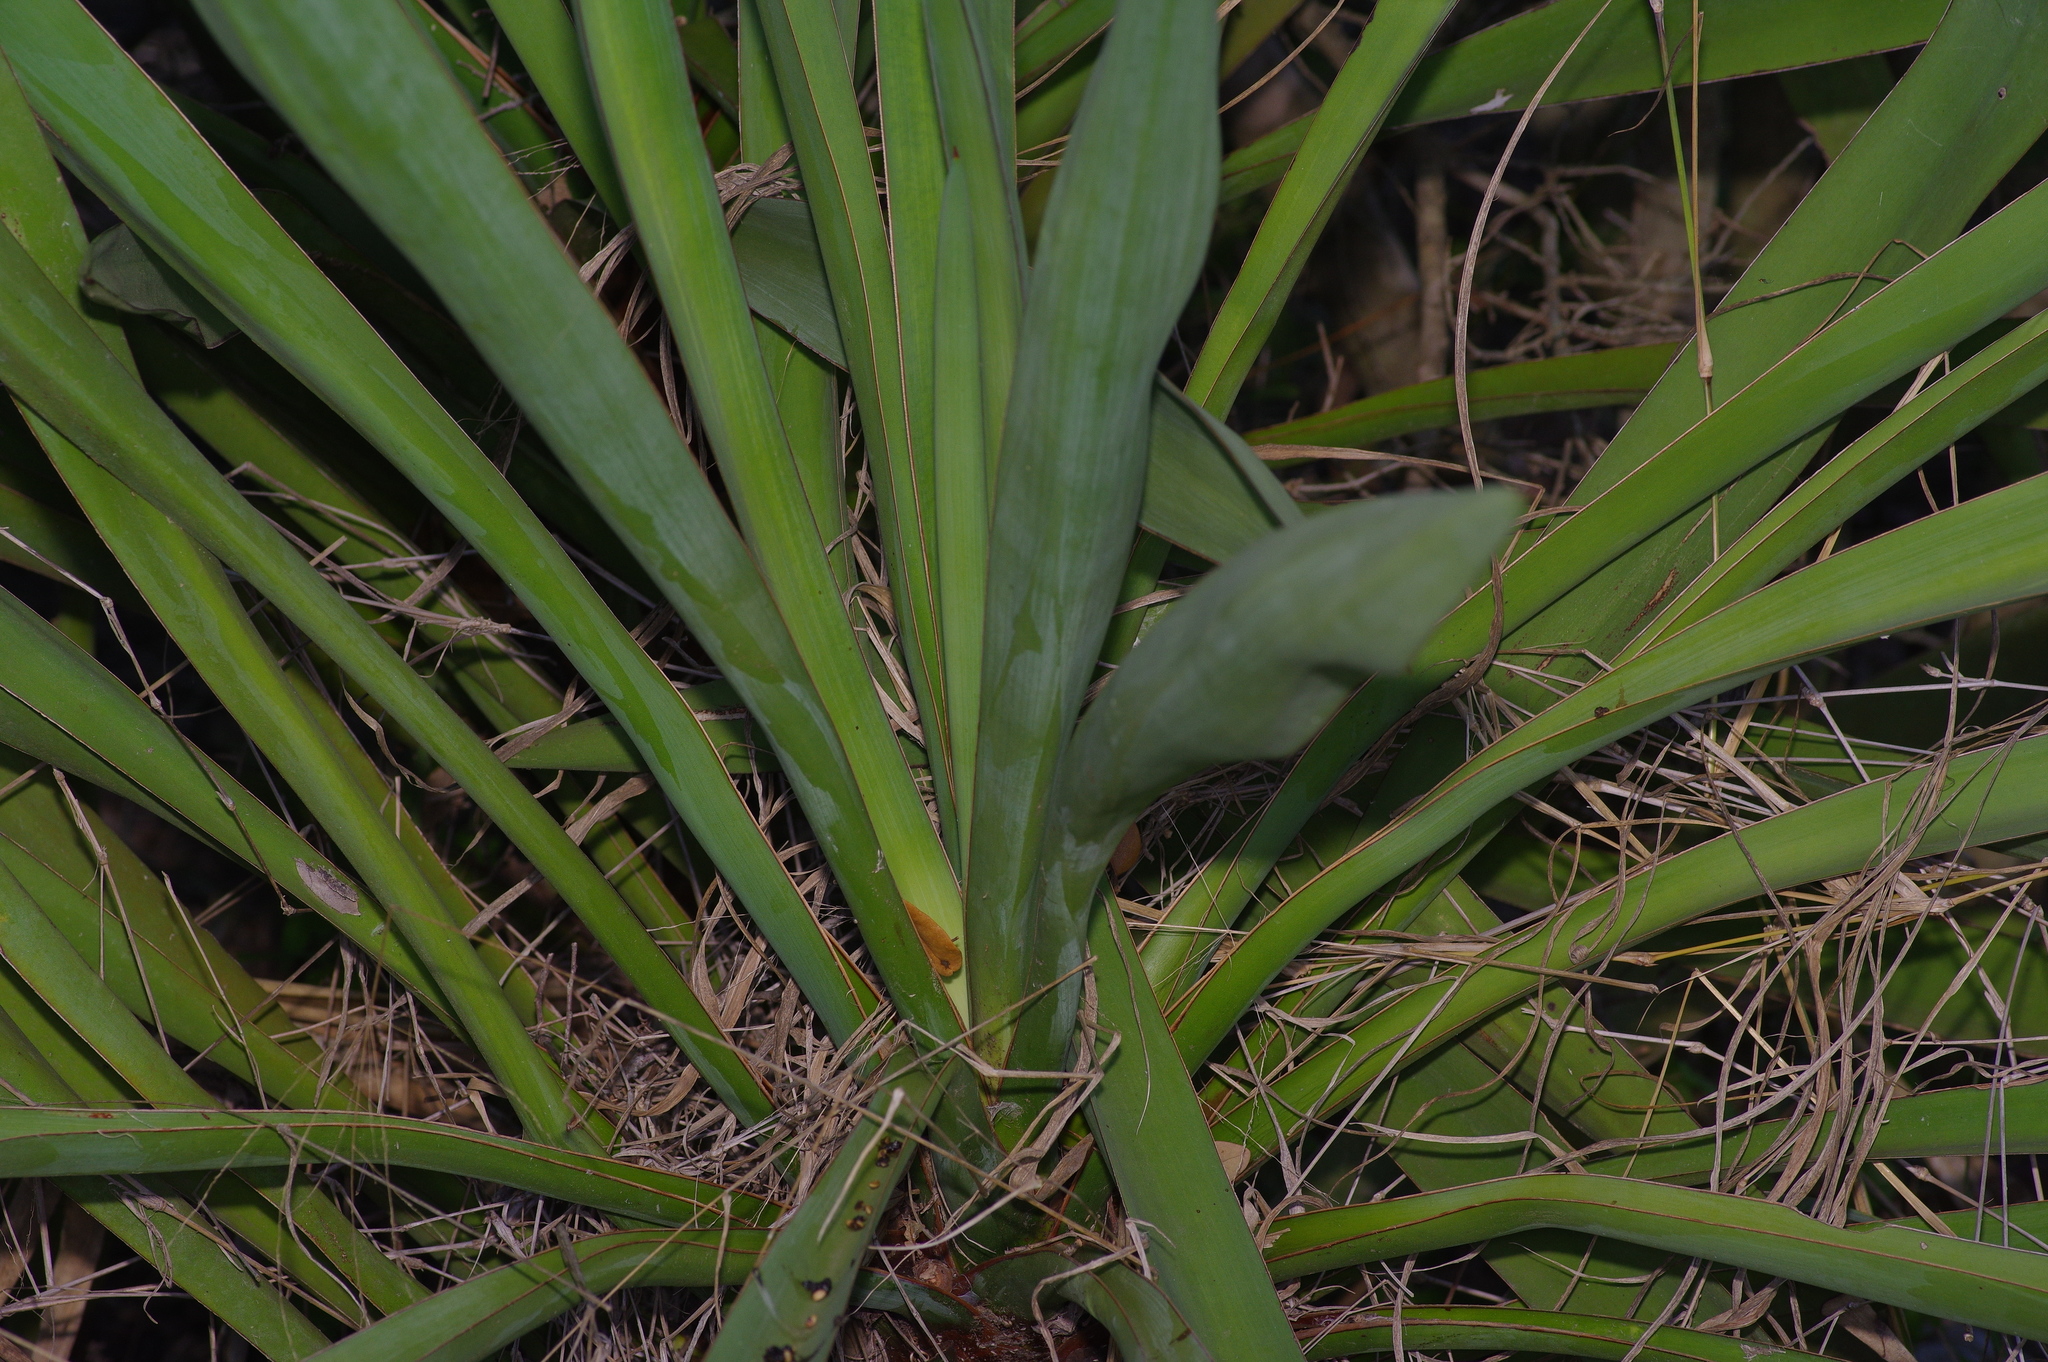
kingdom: Plantae
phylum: Tracheophyta
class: Liliopsida
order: Asparagales
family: Asparagaceae
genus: Yucca
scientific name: Yucca treculiana
